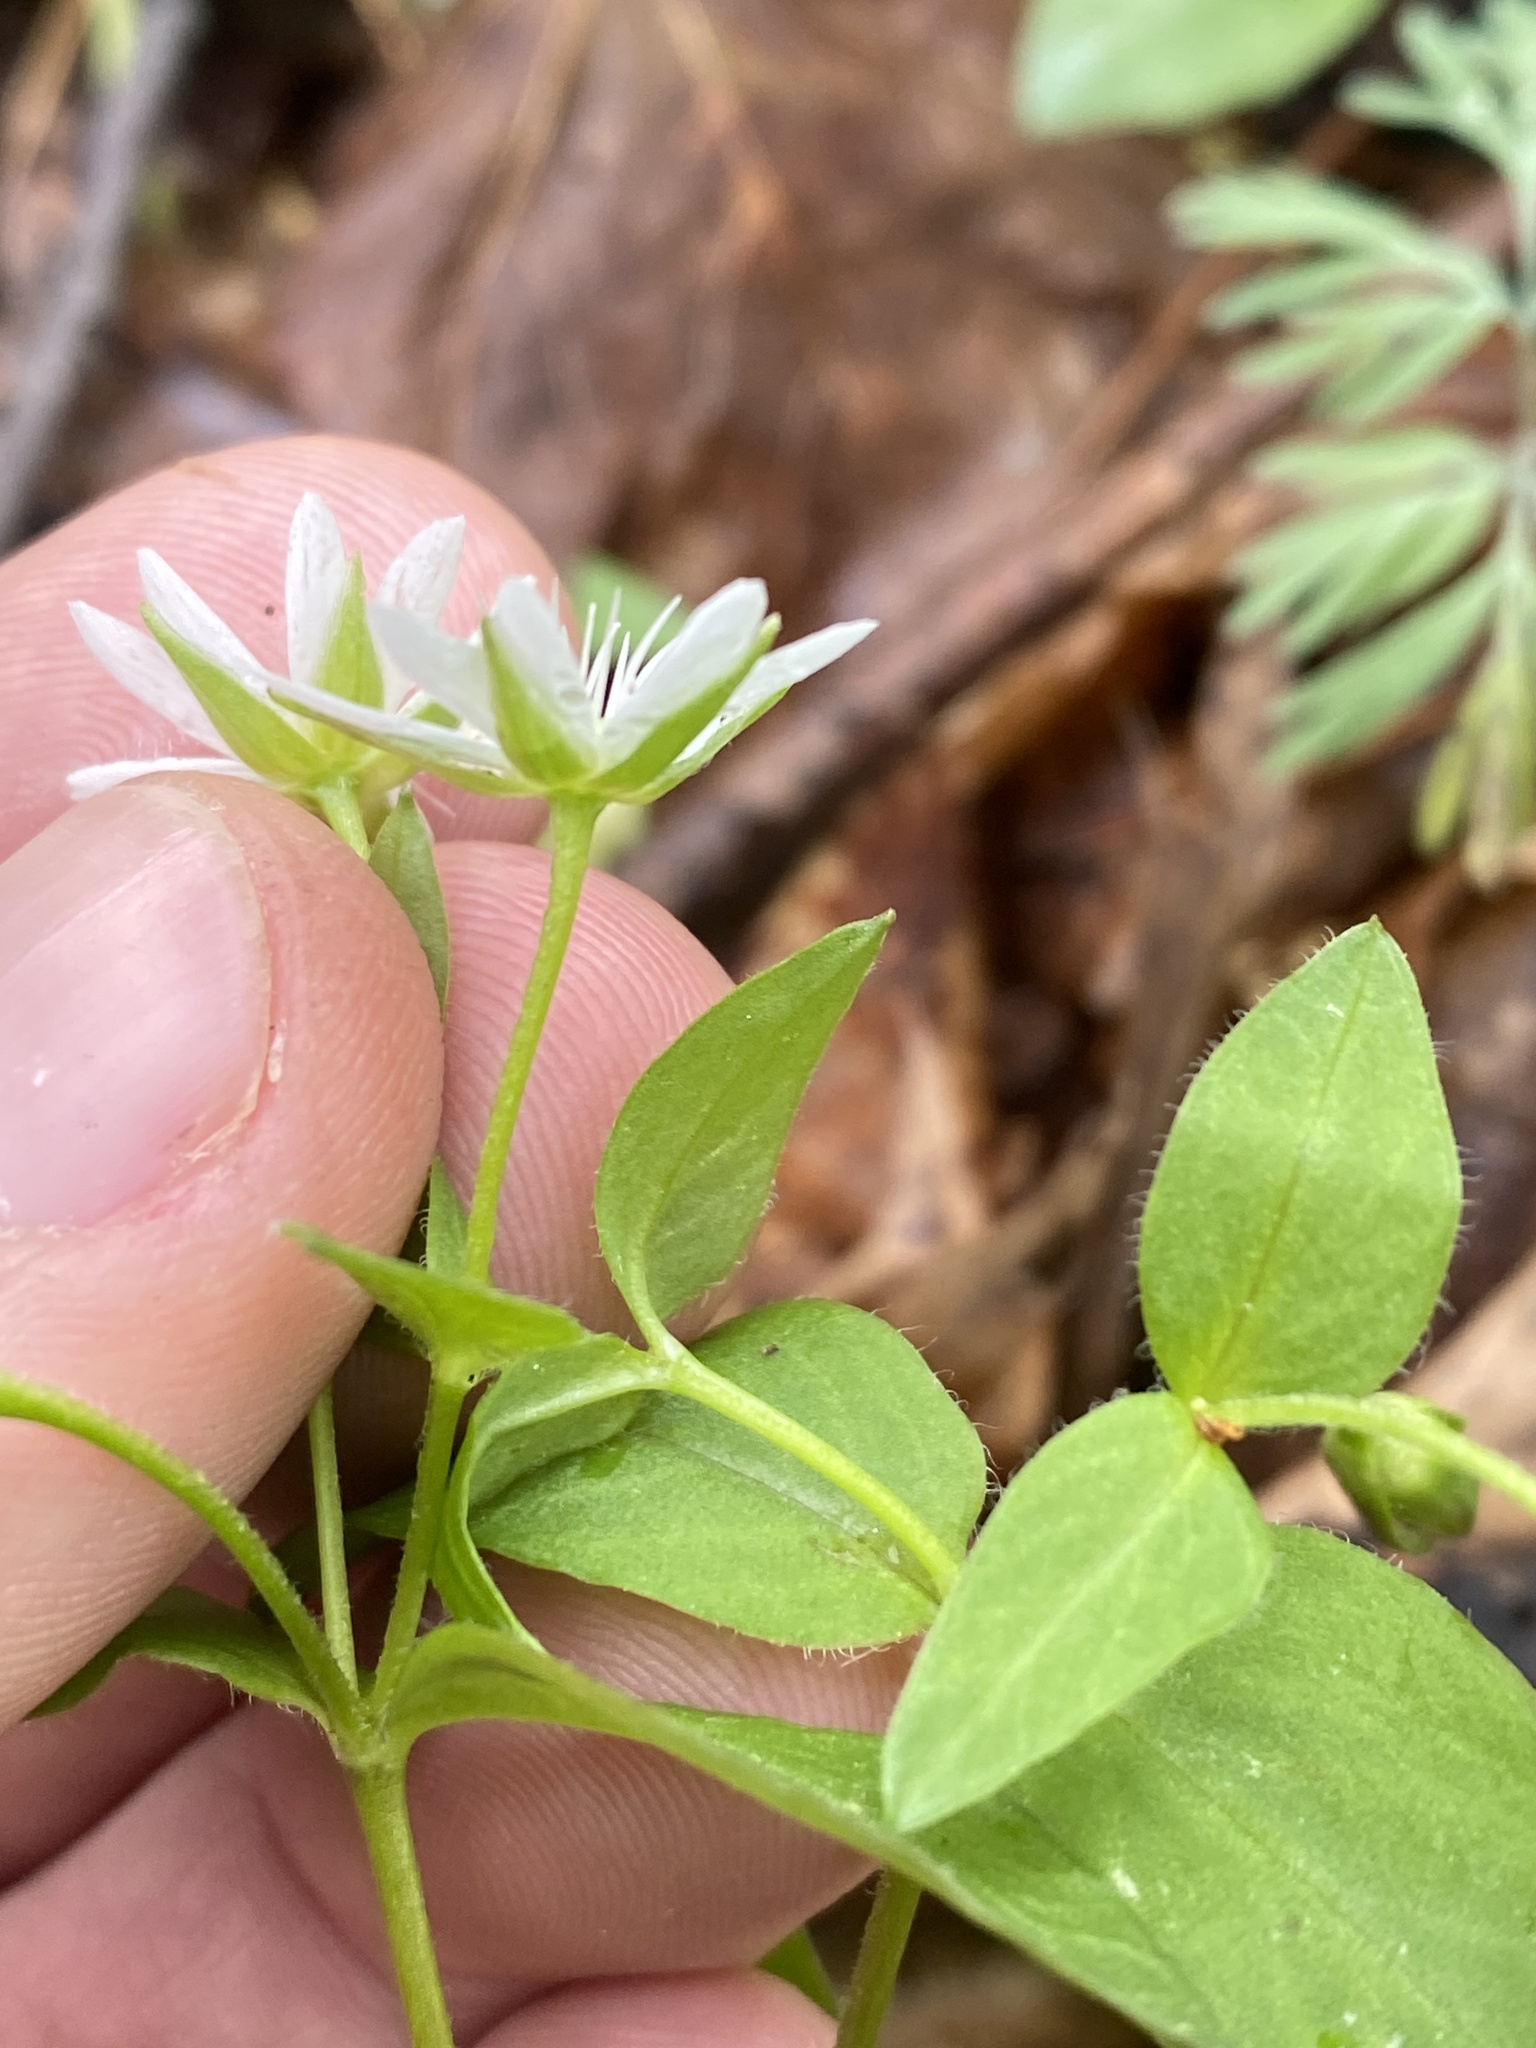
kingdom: Plantae
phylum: Tracheophyta
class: Magnoliopsida
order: Caryophyllales
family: Caryophyllaceae
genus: Stellaria
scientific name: Stellaria corei
